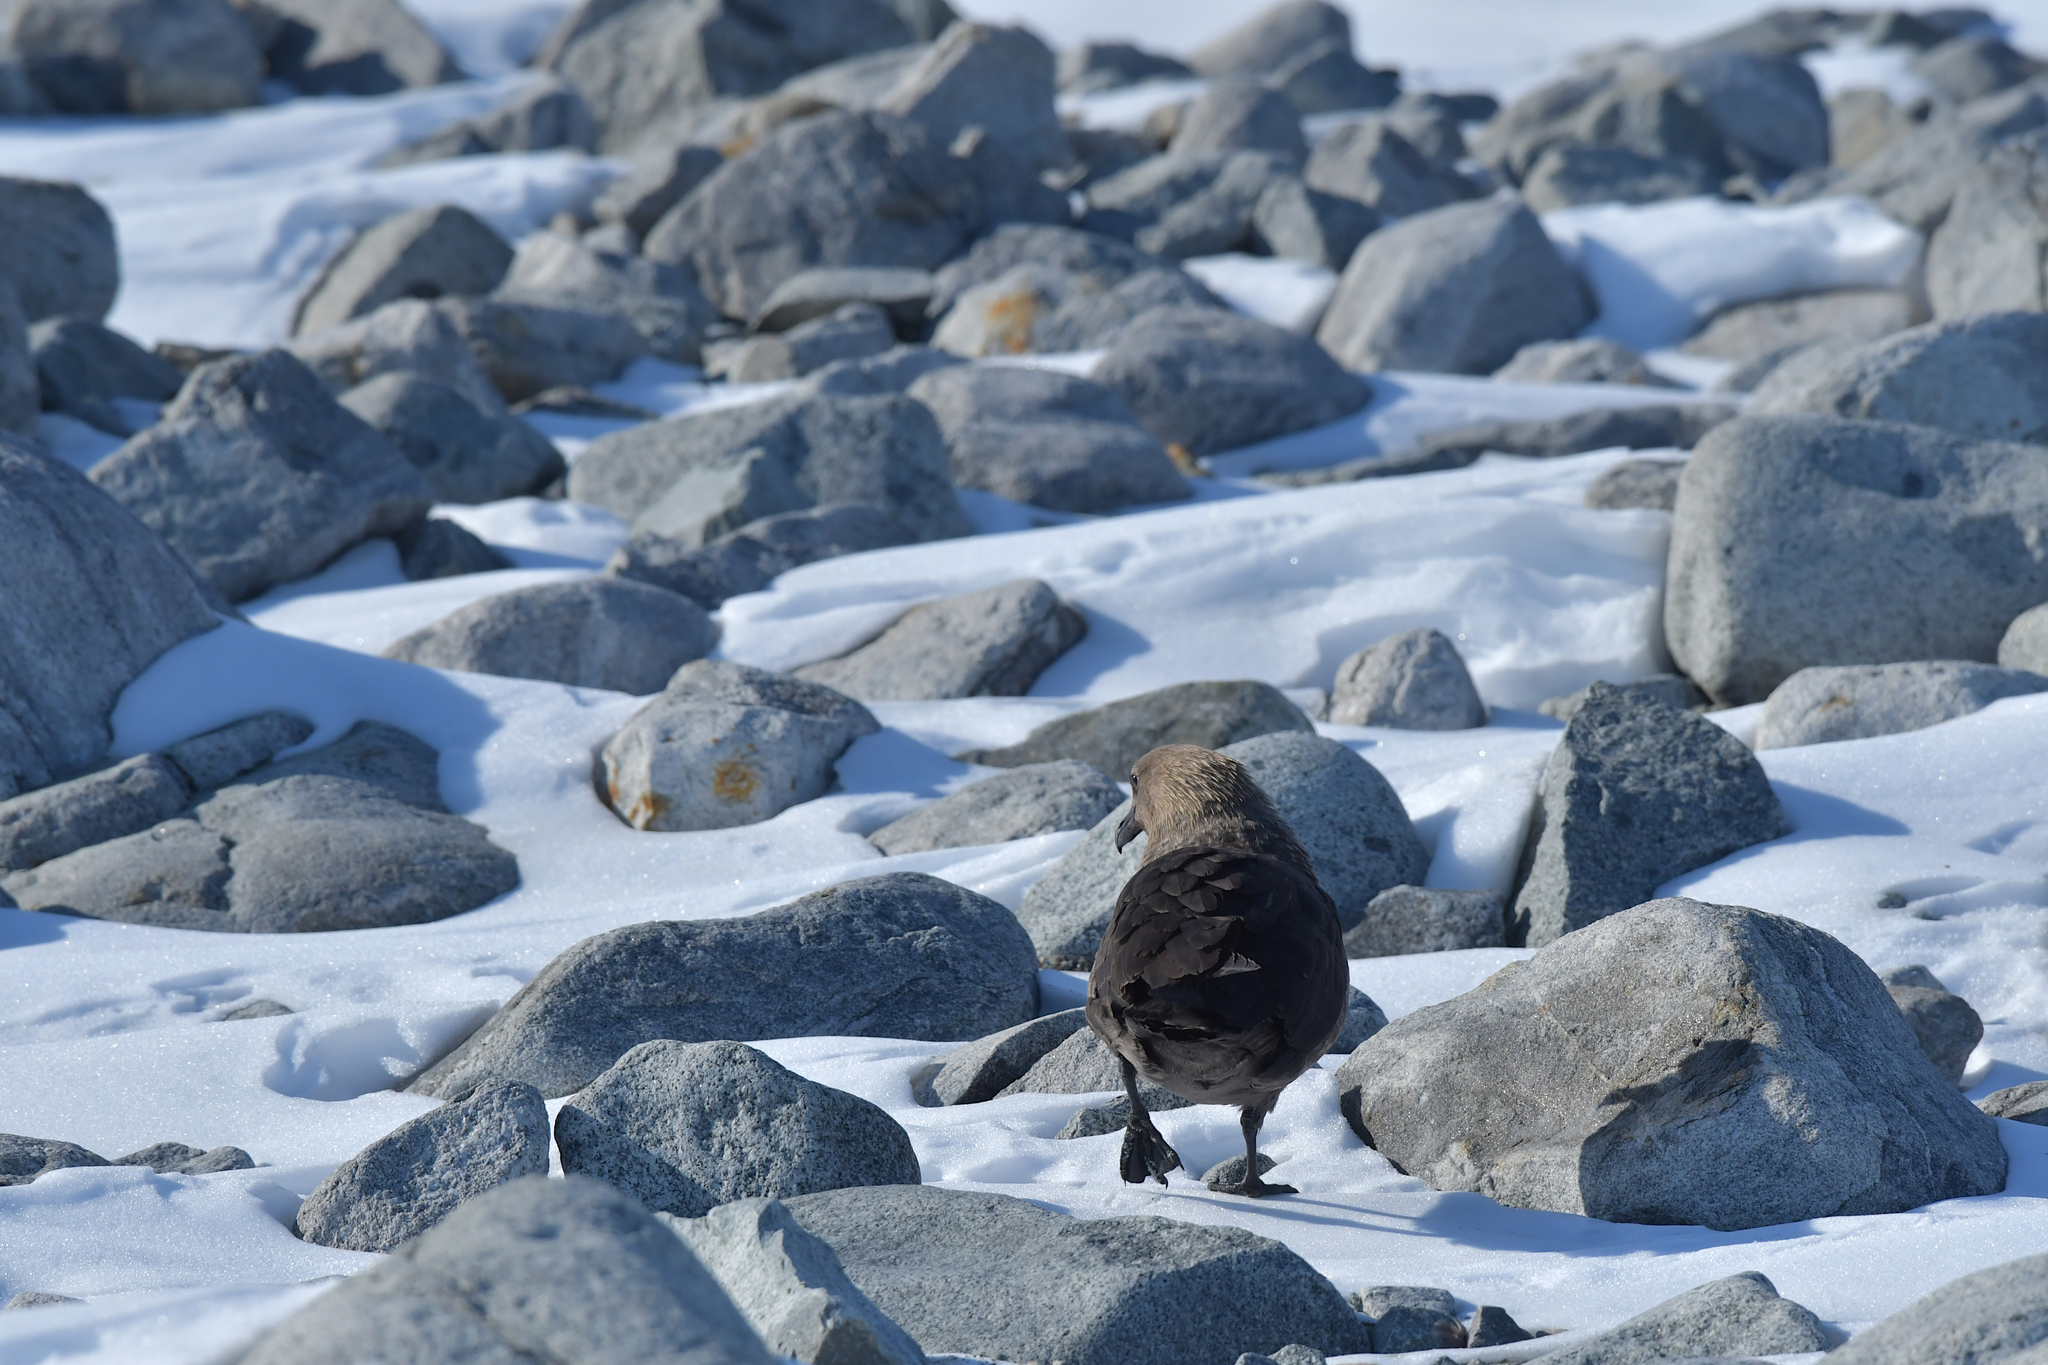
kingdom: Animalia
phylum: Chordata
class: Aves
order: Charadriiformes
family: Stercorariidae
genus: Stercorarius
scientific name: Stercorarius maccormicki
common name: South polar skua
